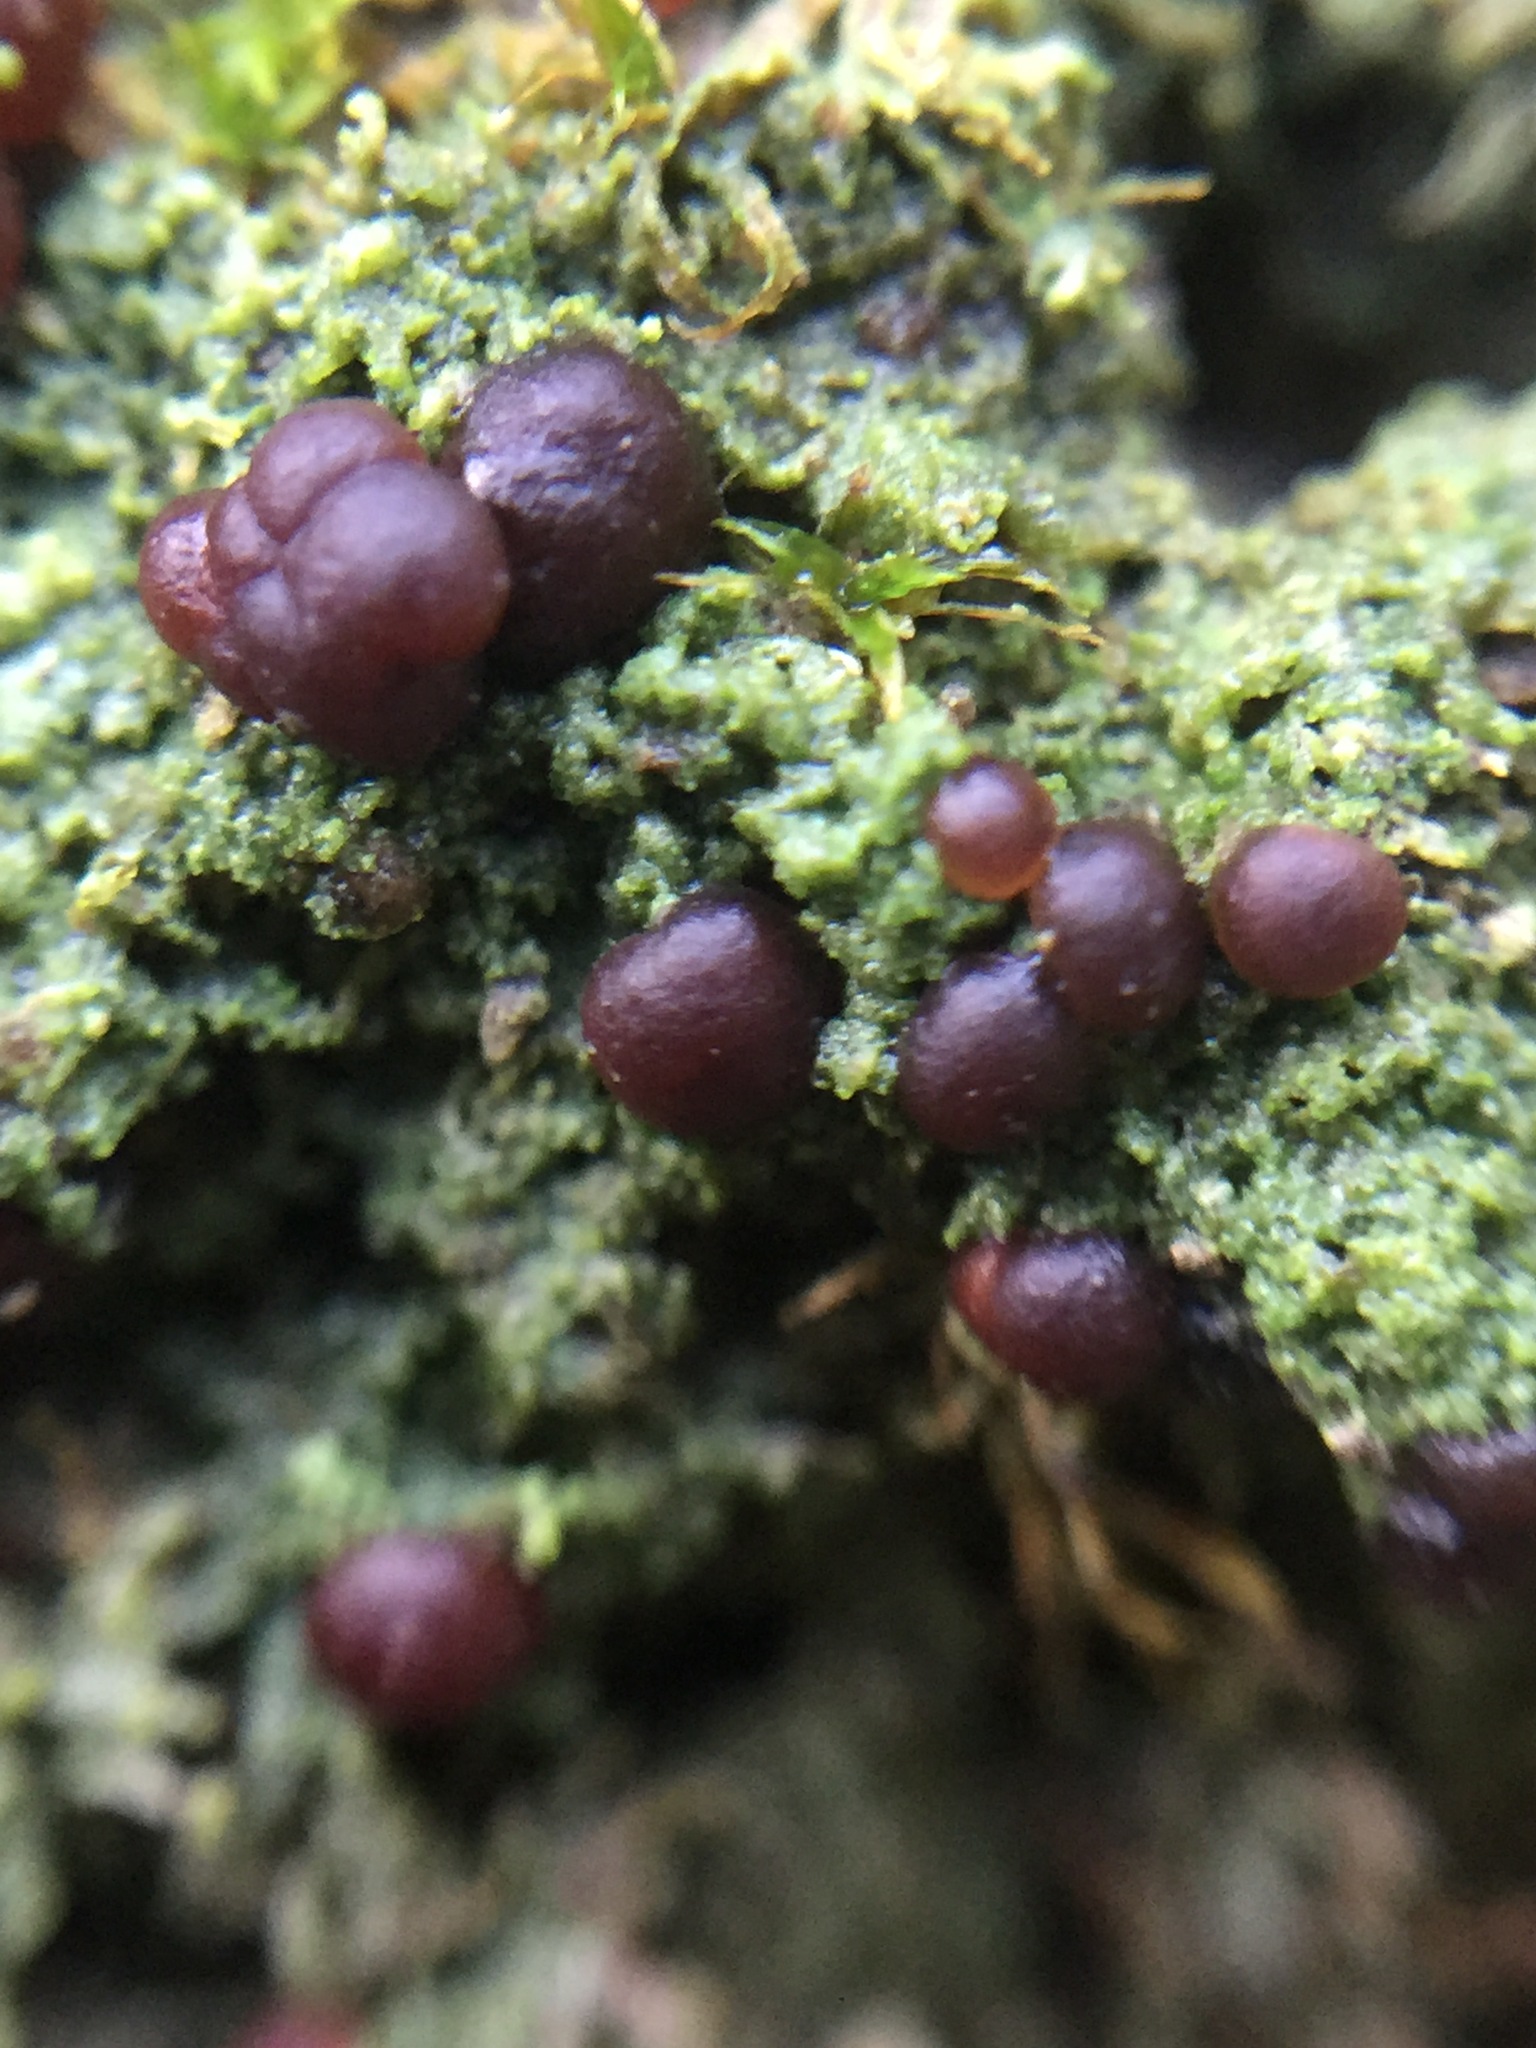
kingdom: Fungi
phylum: Ascomycota
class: Lecanoromycetes
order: Lecanorales
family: Byssolomataceae
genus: Micarea
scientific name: Micarea prasina
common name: Green dot lichen
